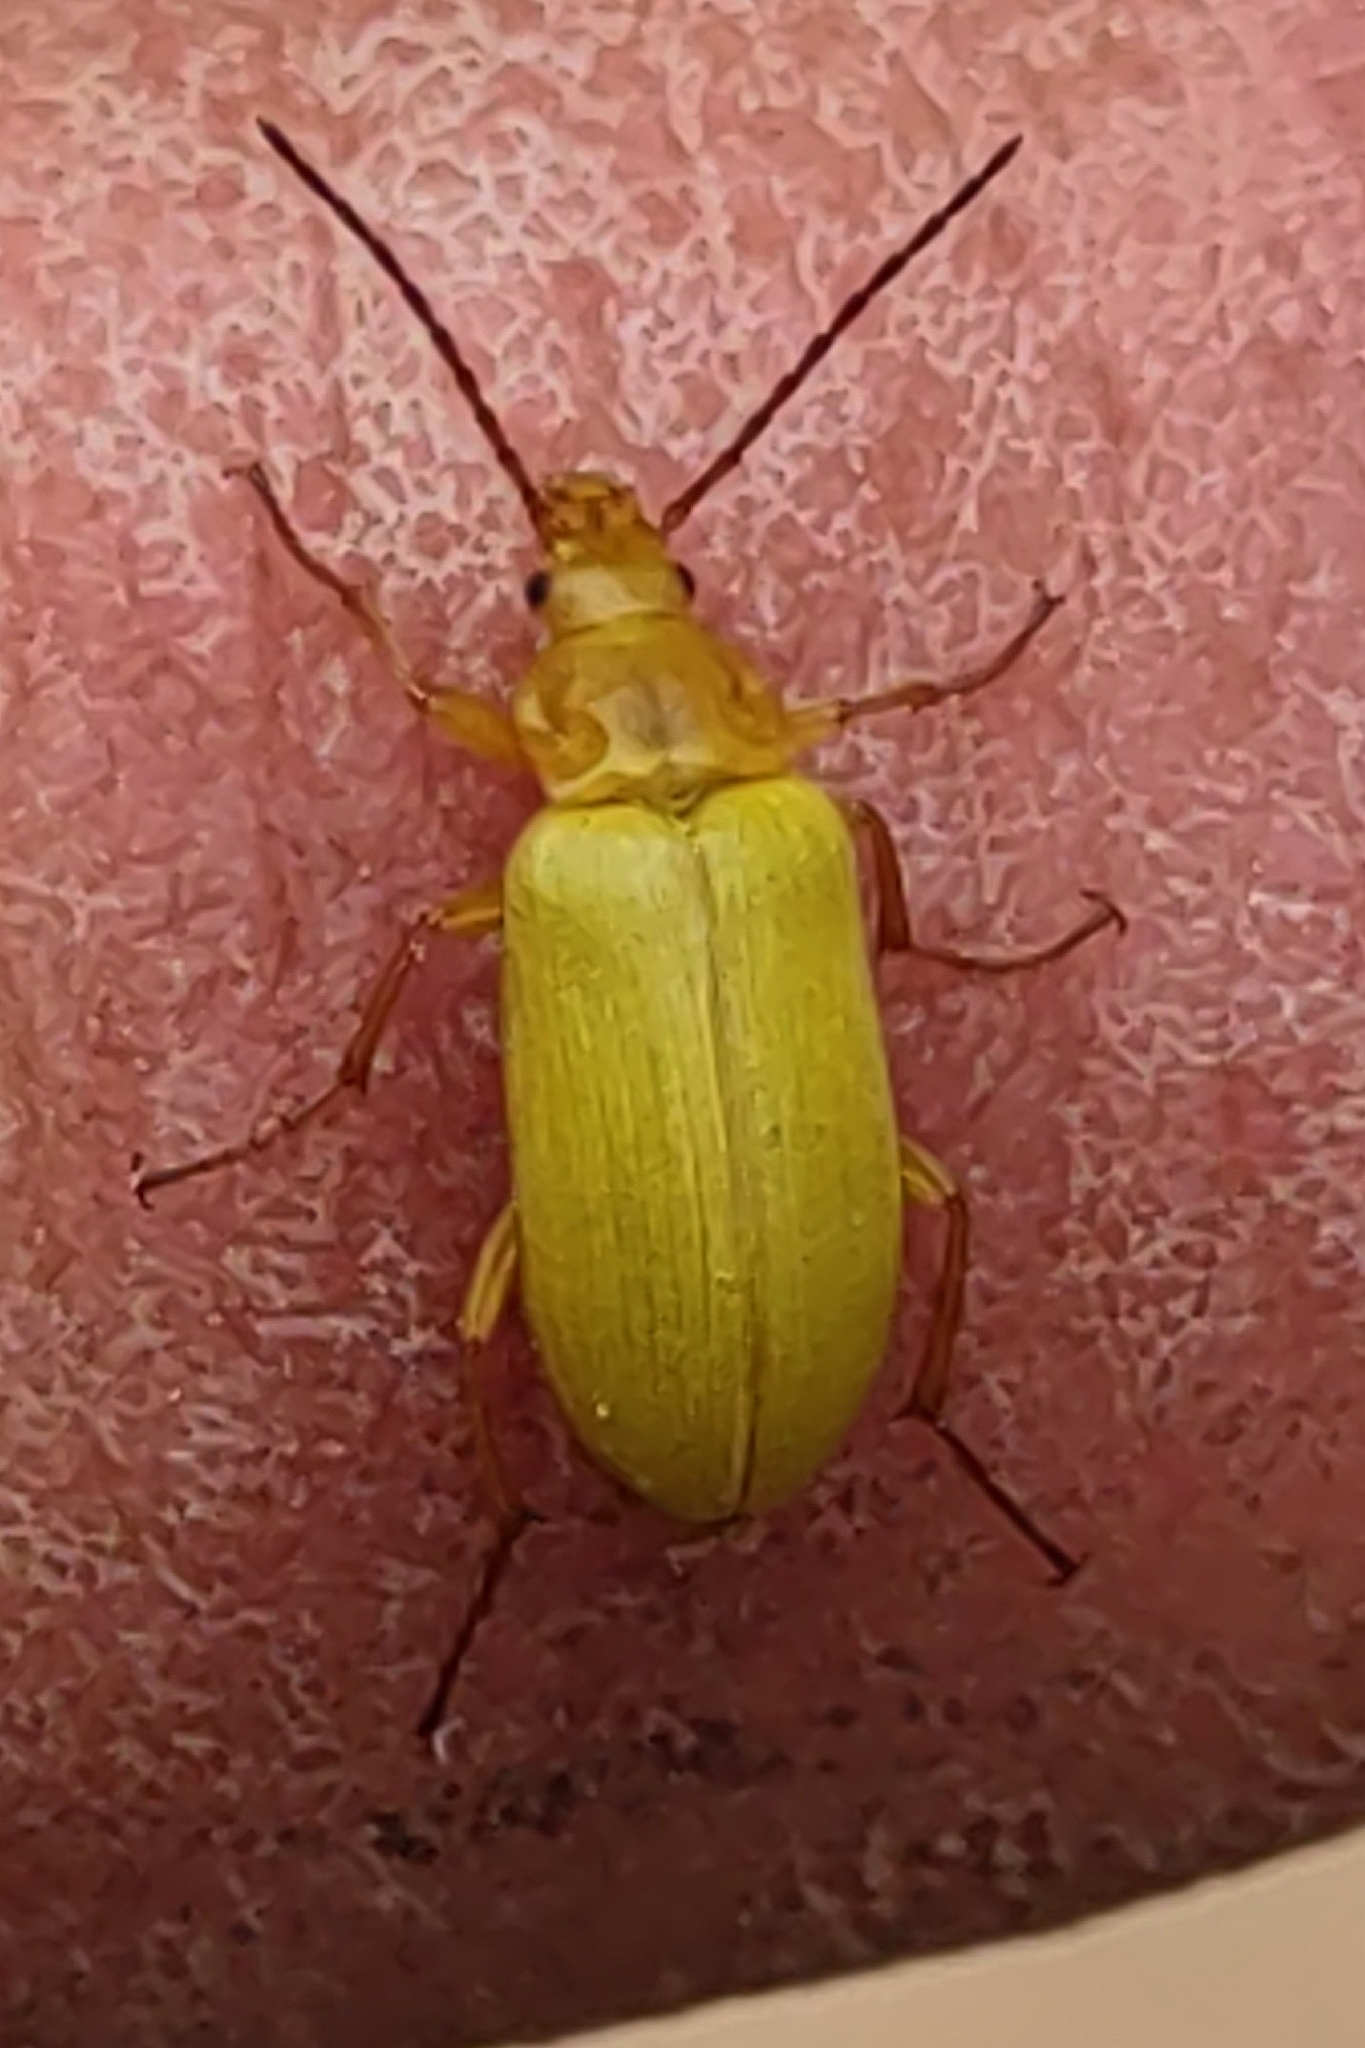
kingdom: Animalia
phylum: Arthropoda
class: Insecta
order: Coleoptera
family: Tenebrionidae
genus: Cteniopus
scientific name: Cteniopus sulphureus
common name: Sulphur beetle
